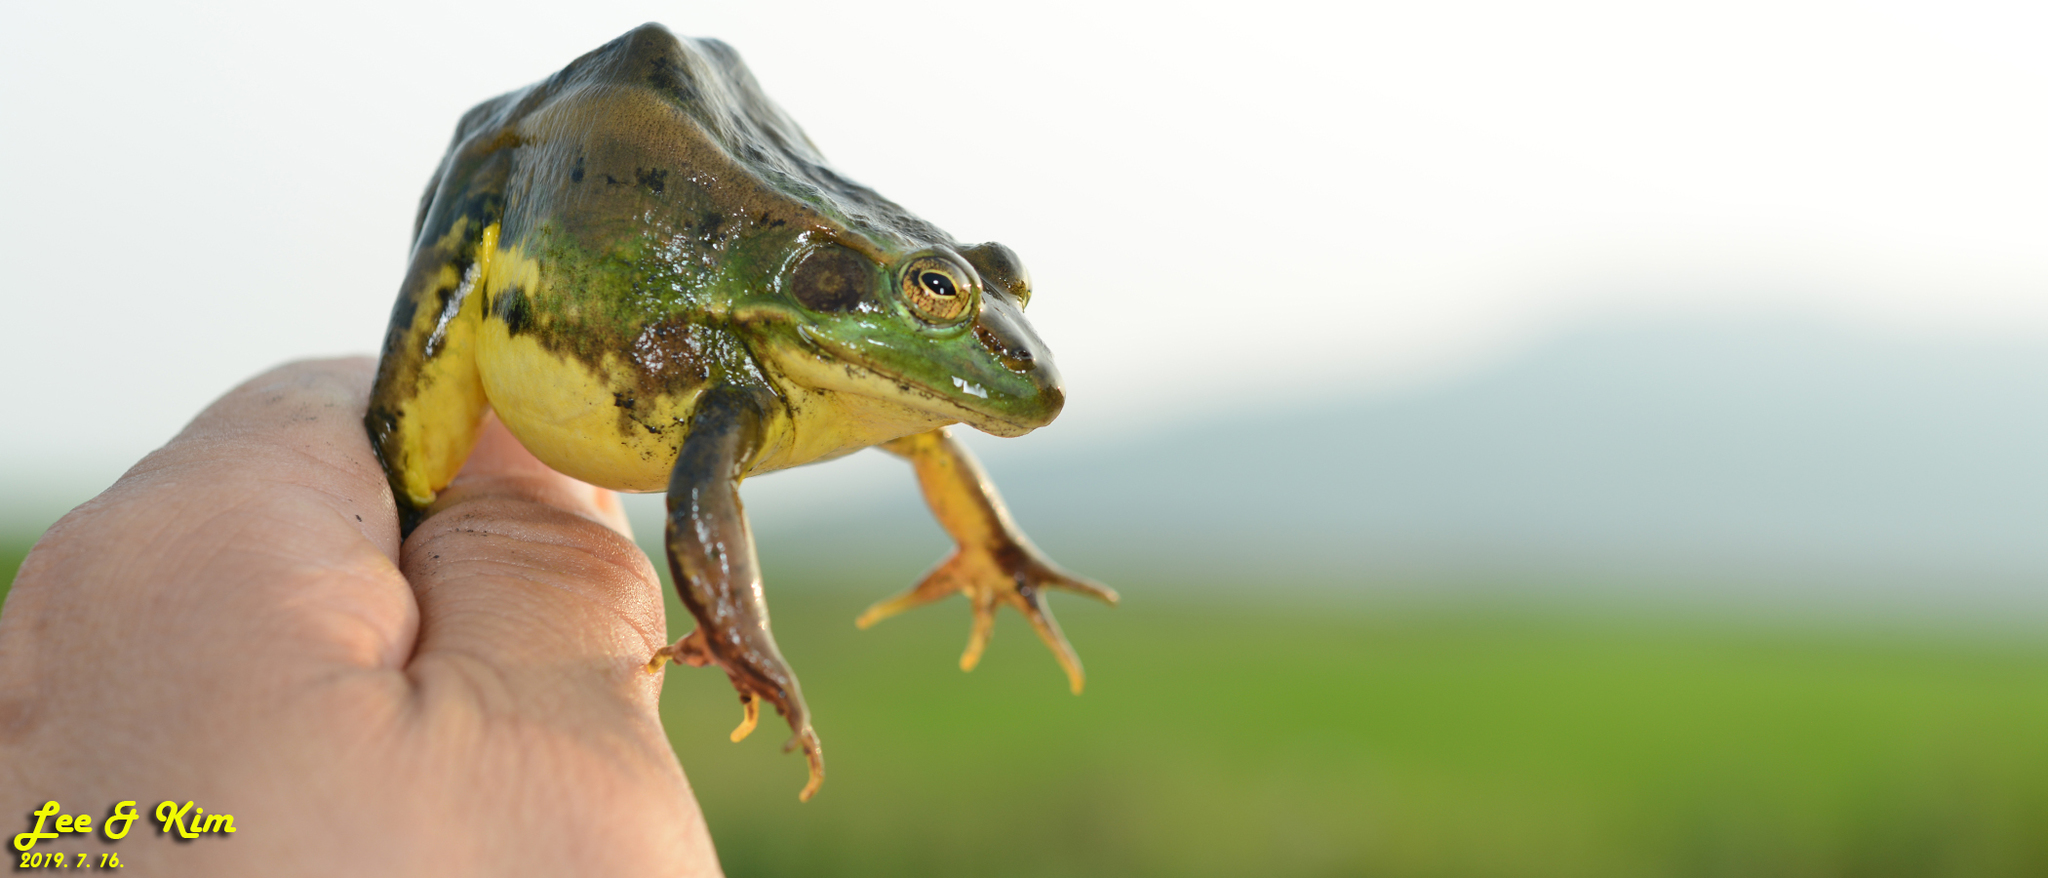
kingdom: Animalia
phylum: Chordata
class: Amphibia
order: Anura
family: Ranidae
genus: Pelophylax
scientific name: Pelophylax chosenicus
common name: Gold-spotted pond frog
